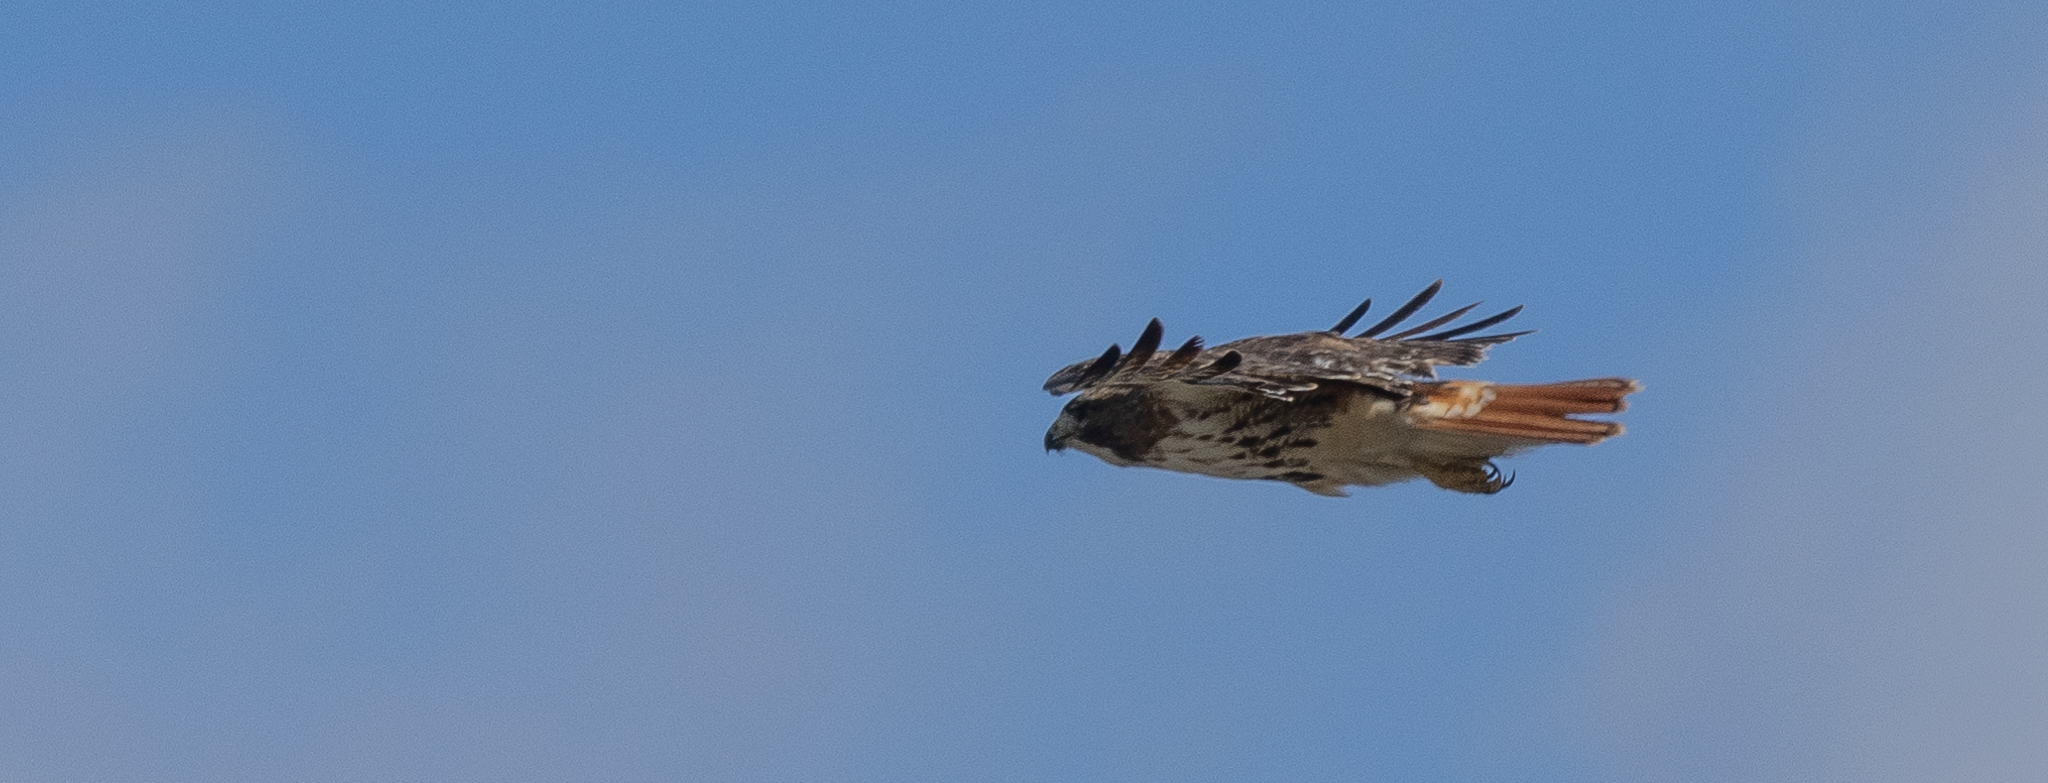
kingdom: Animalia
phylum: Chordata
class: Aves
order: Accipitriformes
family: Accipitridae
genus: Buteo
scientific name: Buteo jamaicensis
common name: Red-tailed hawk
